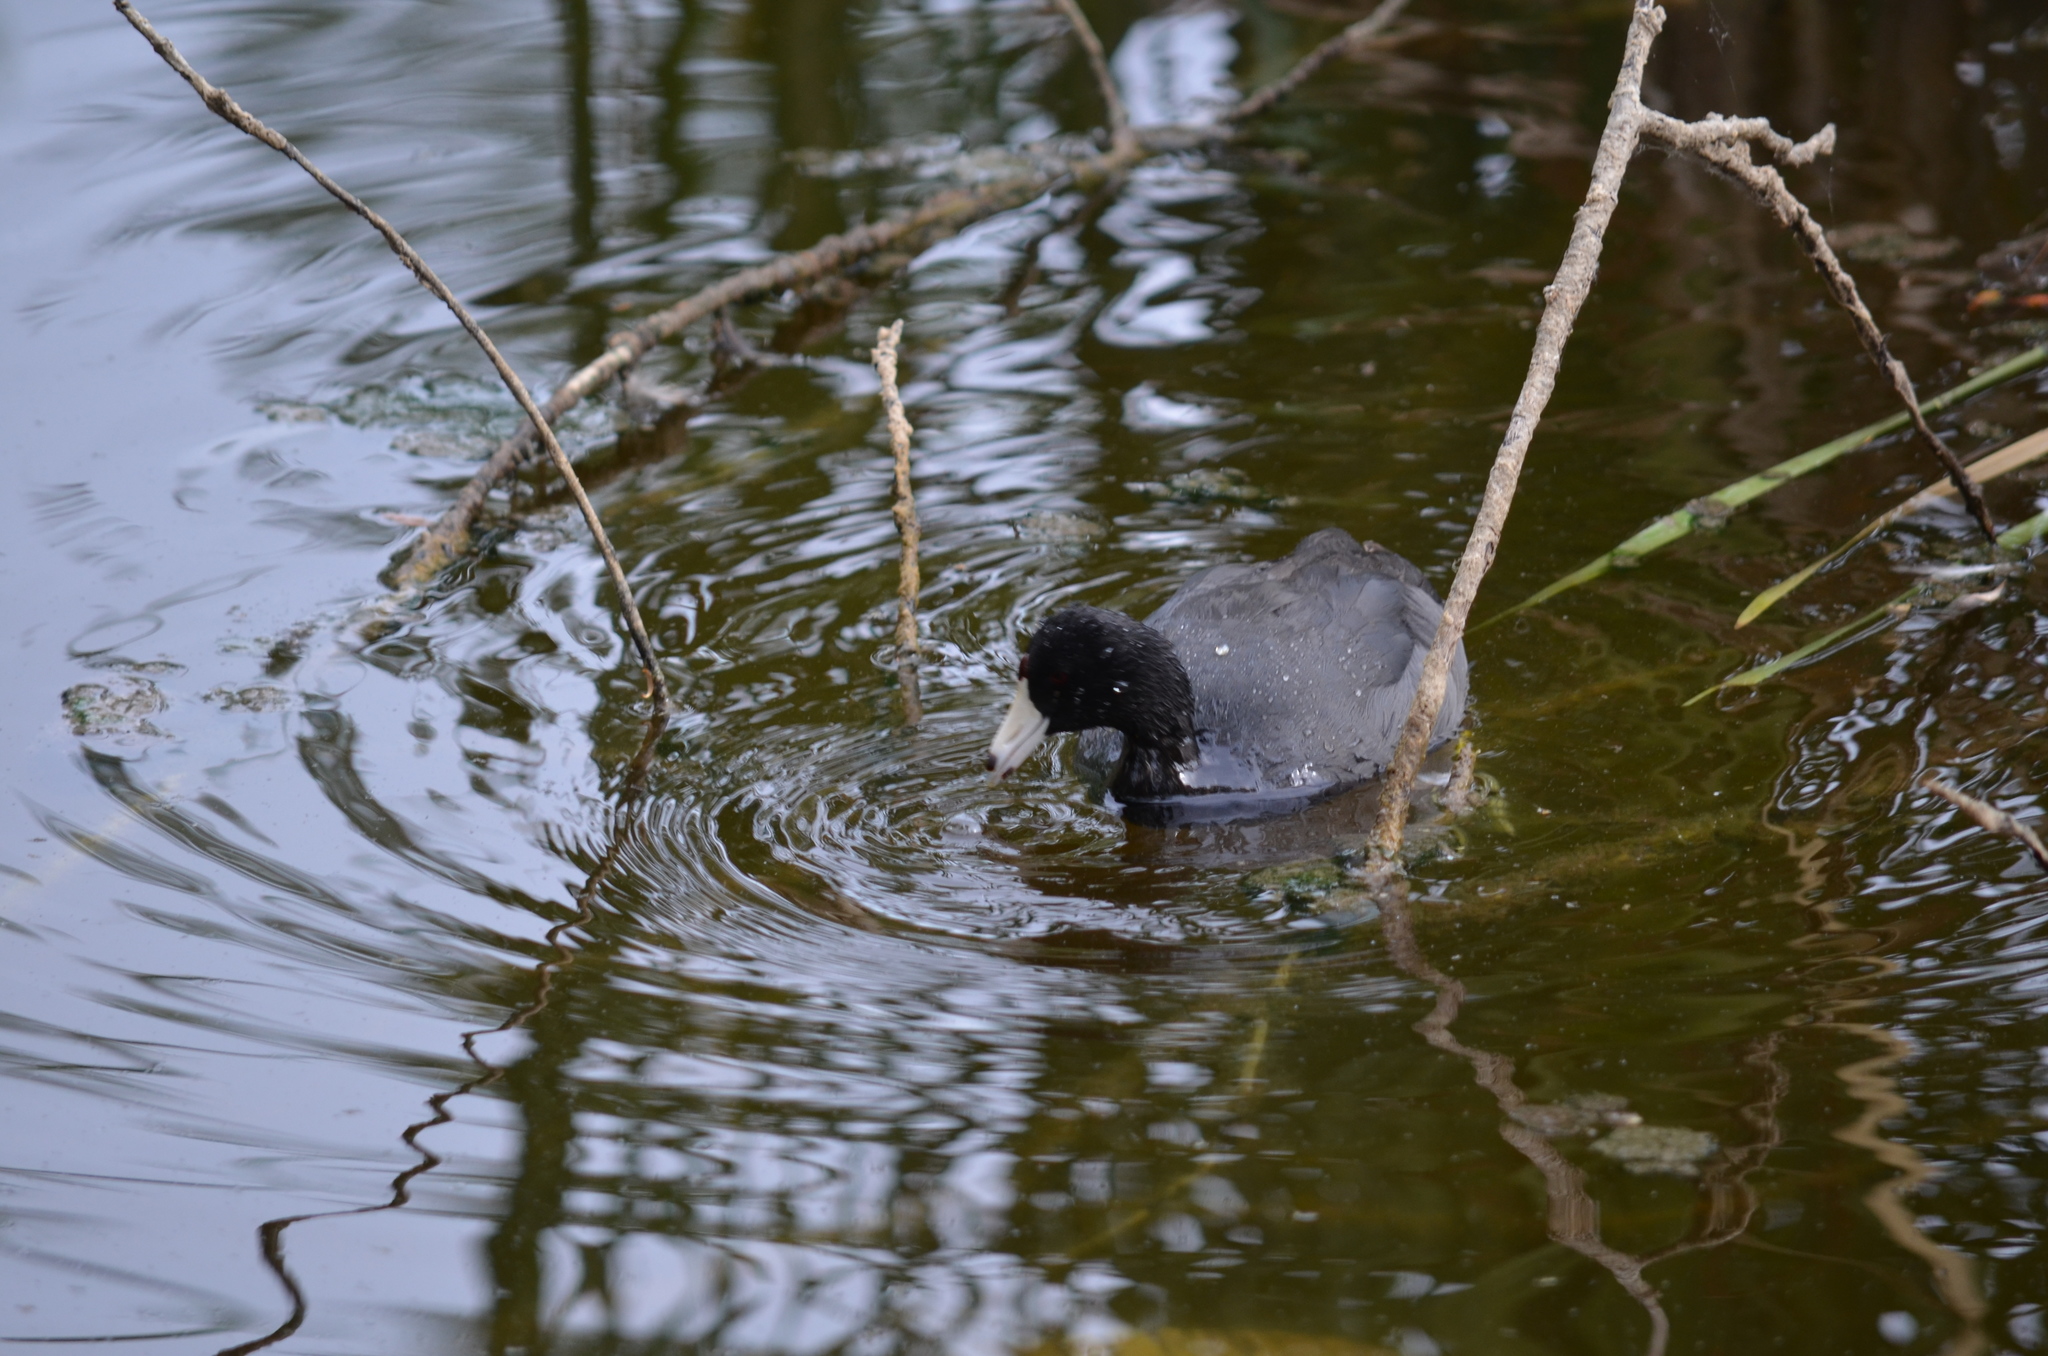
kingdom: Animalia
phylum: Chordata
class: Aves
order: Gruiformes
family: Rallidae
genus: Fulica
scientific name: Fulica americana
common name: American coot
